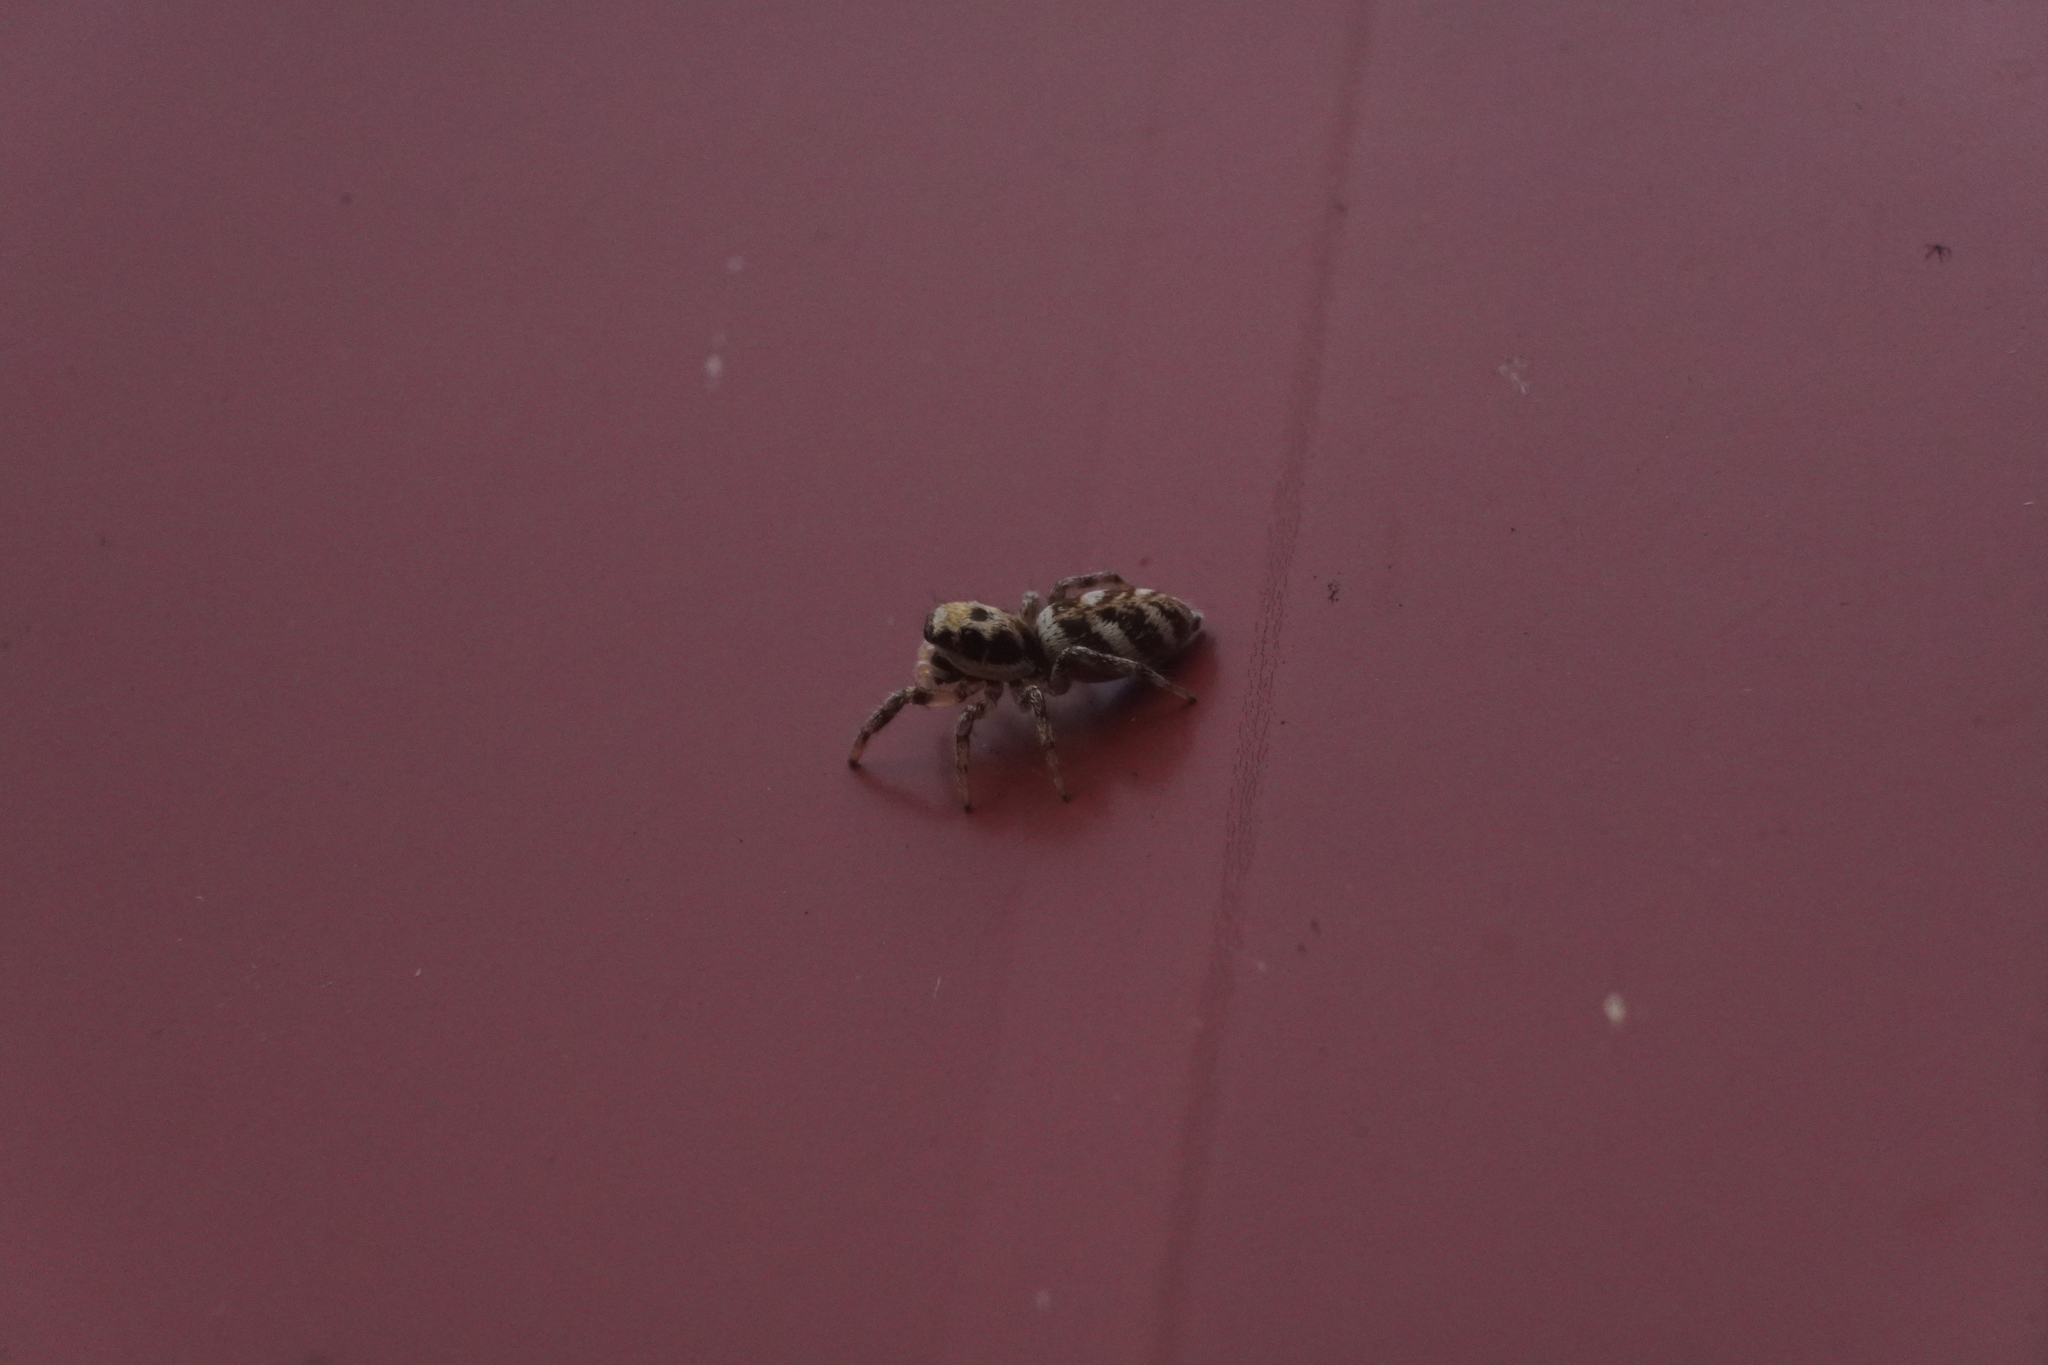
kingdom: Animalia
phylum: Arthropoda
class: Arachnida
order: Araneae
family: Salticidae
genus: Salticus
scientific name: Salticus scenicus
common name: Zebra jumper
